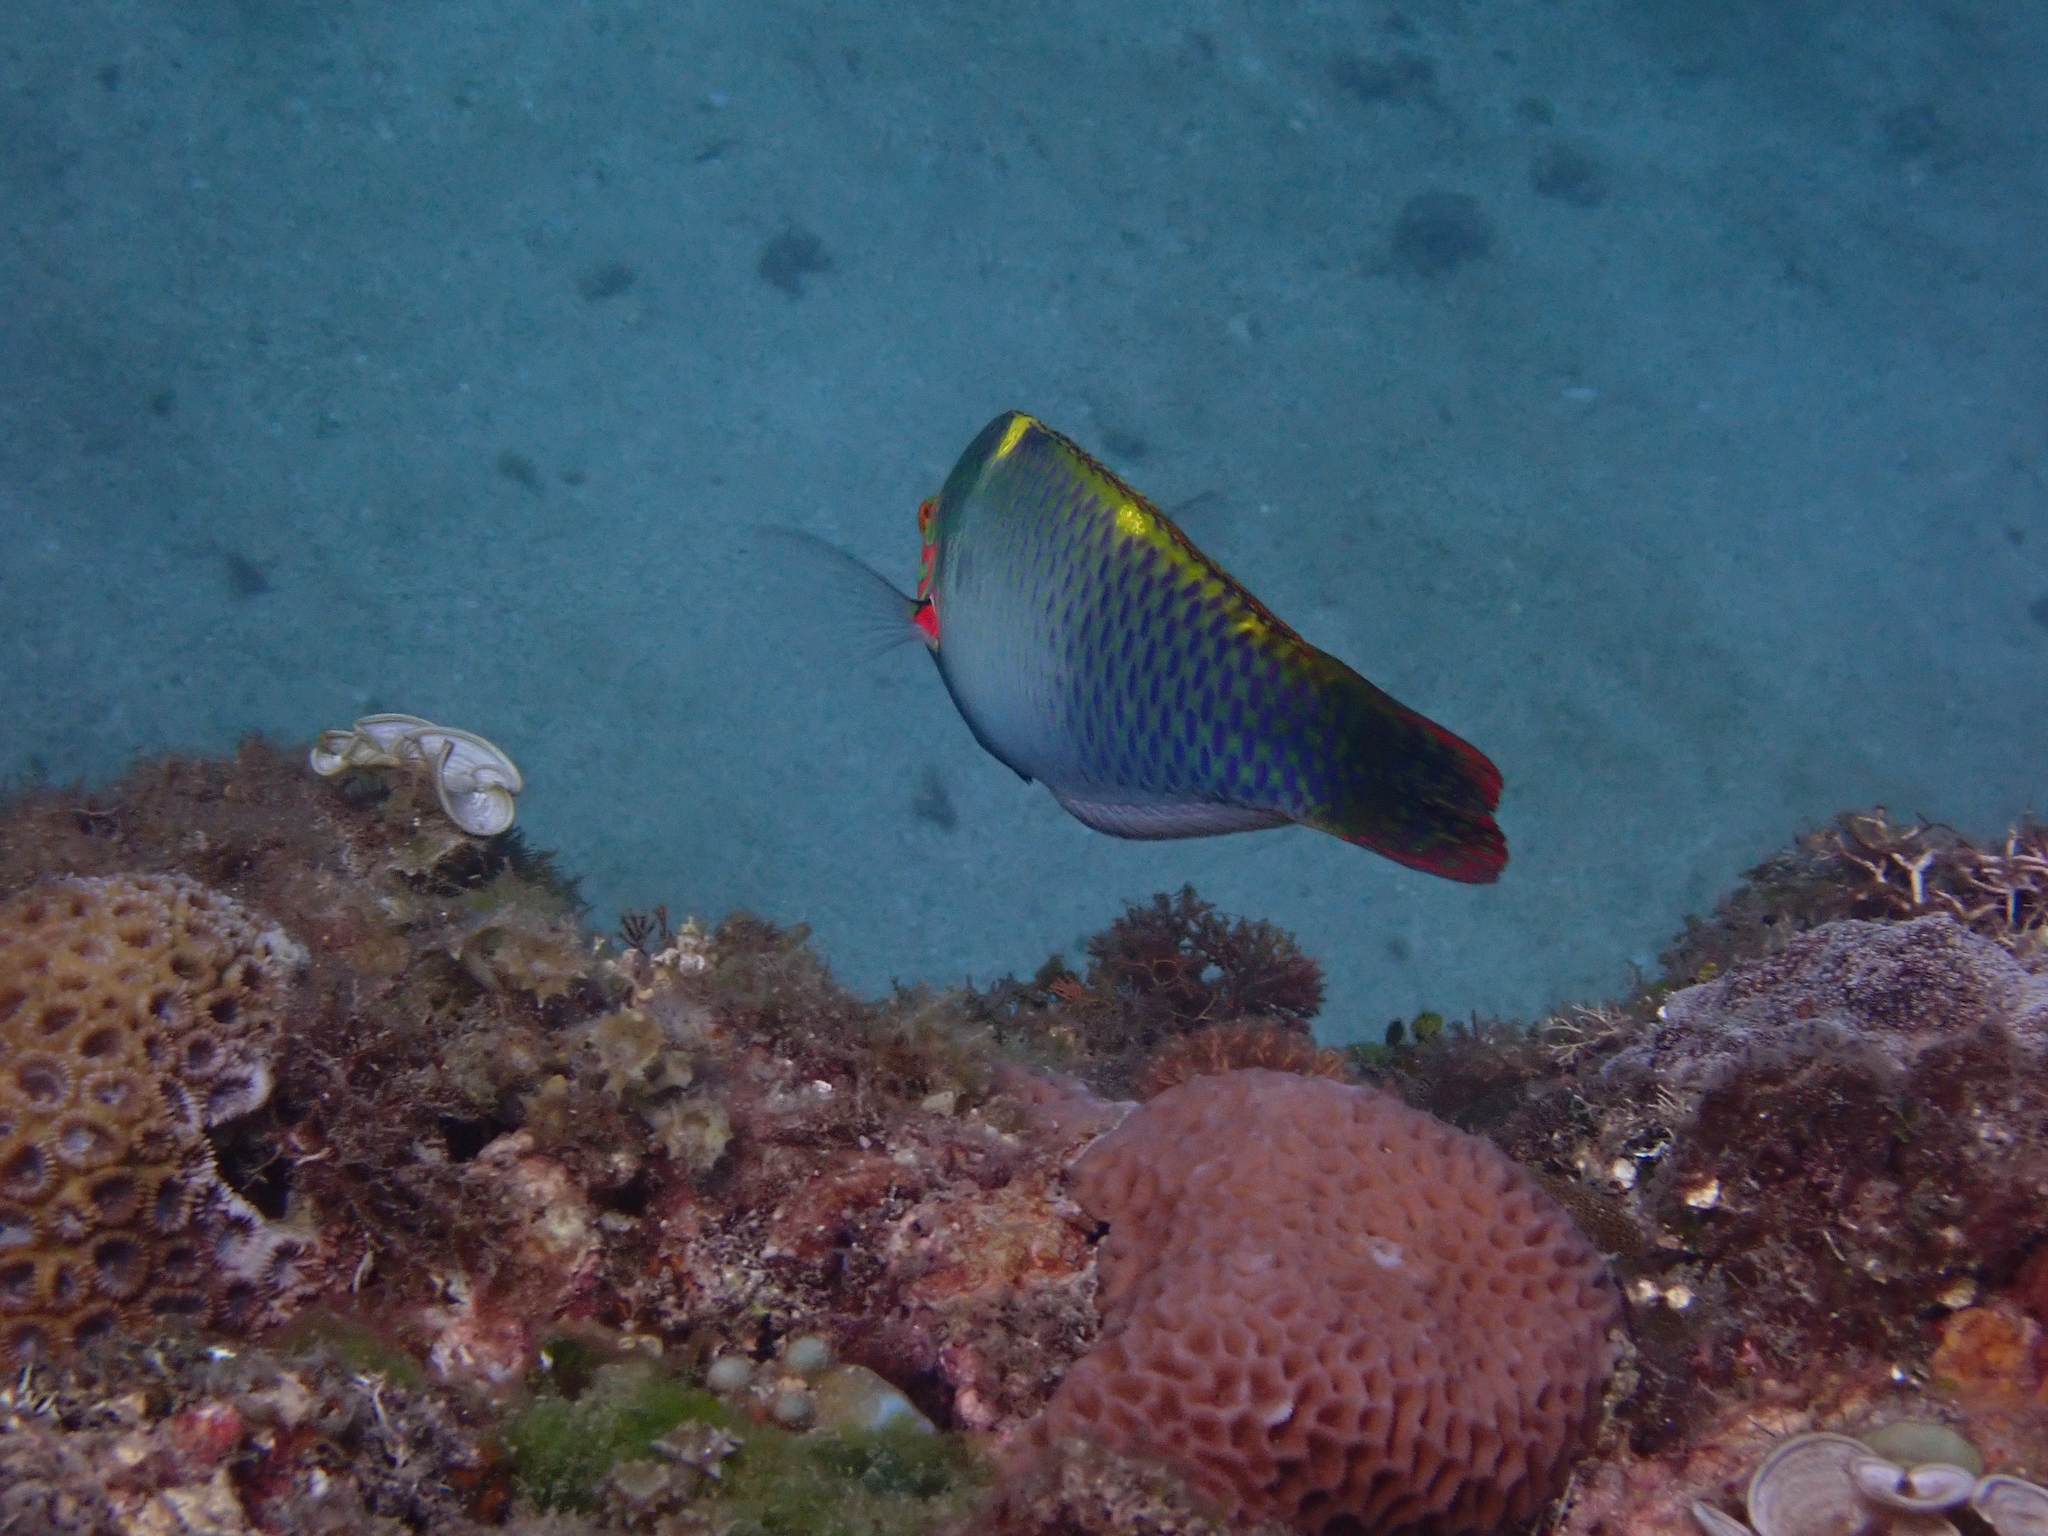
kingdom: Animalia
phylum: Chordata
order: Perciformes
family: Labridae
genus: Halichoeres
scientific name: Halichoeres hortulanus
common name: Checkerboard wrasse
